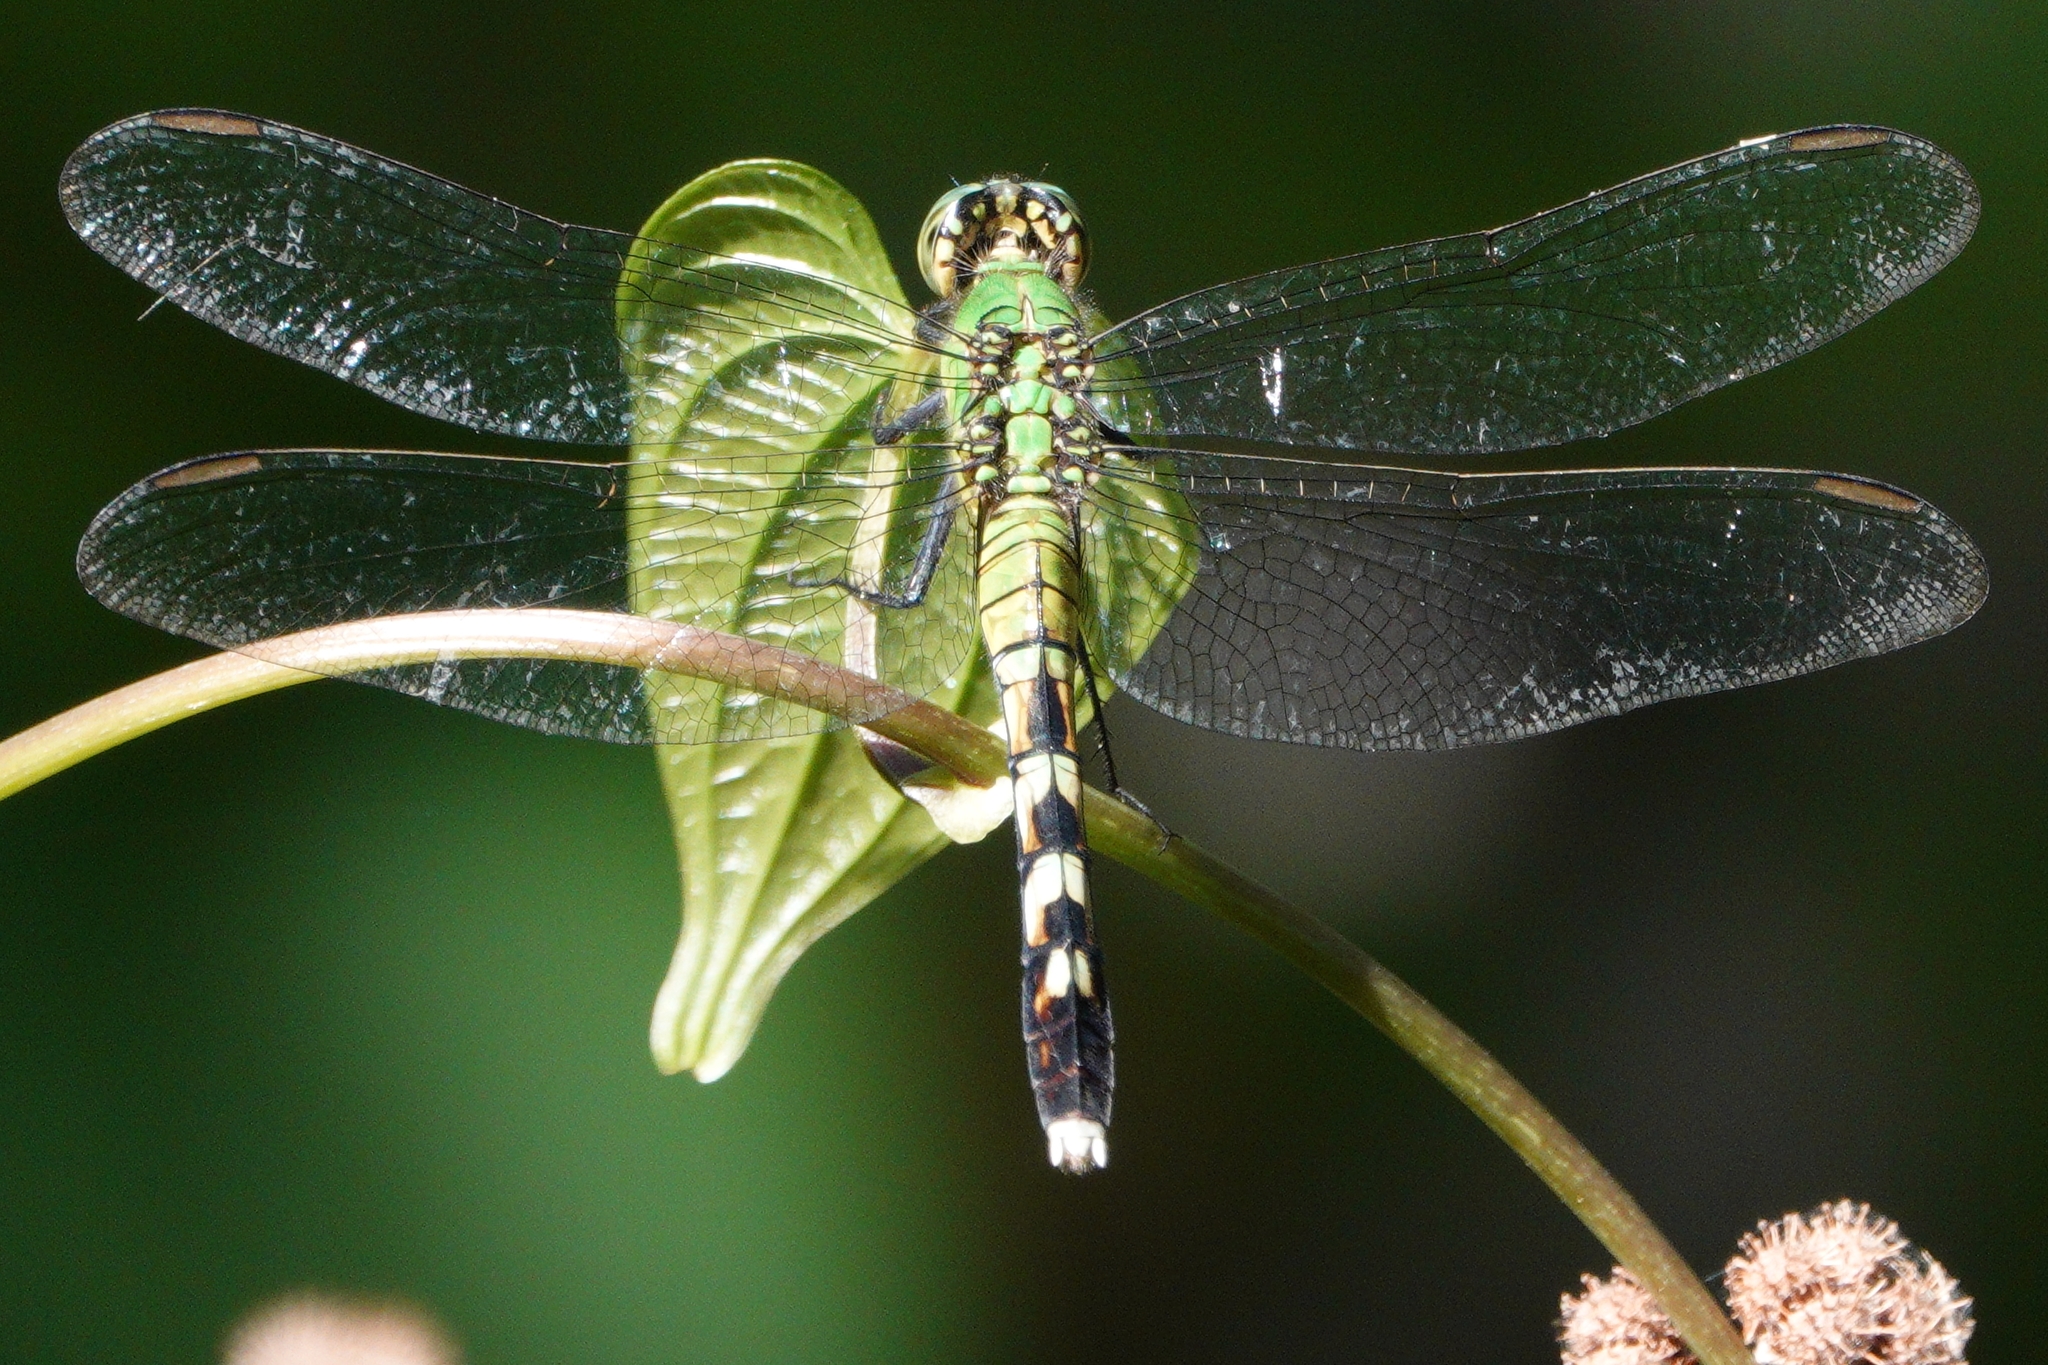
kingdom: Animalia
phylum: Arthropoda
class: Insecta
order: Odonata
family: Libellulidae
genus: Erythemis
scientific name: Erythemis simplicicollis
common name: Eastern pondhawk
